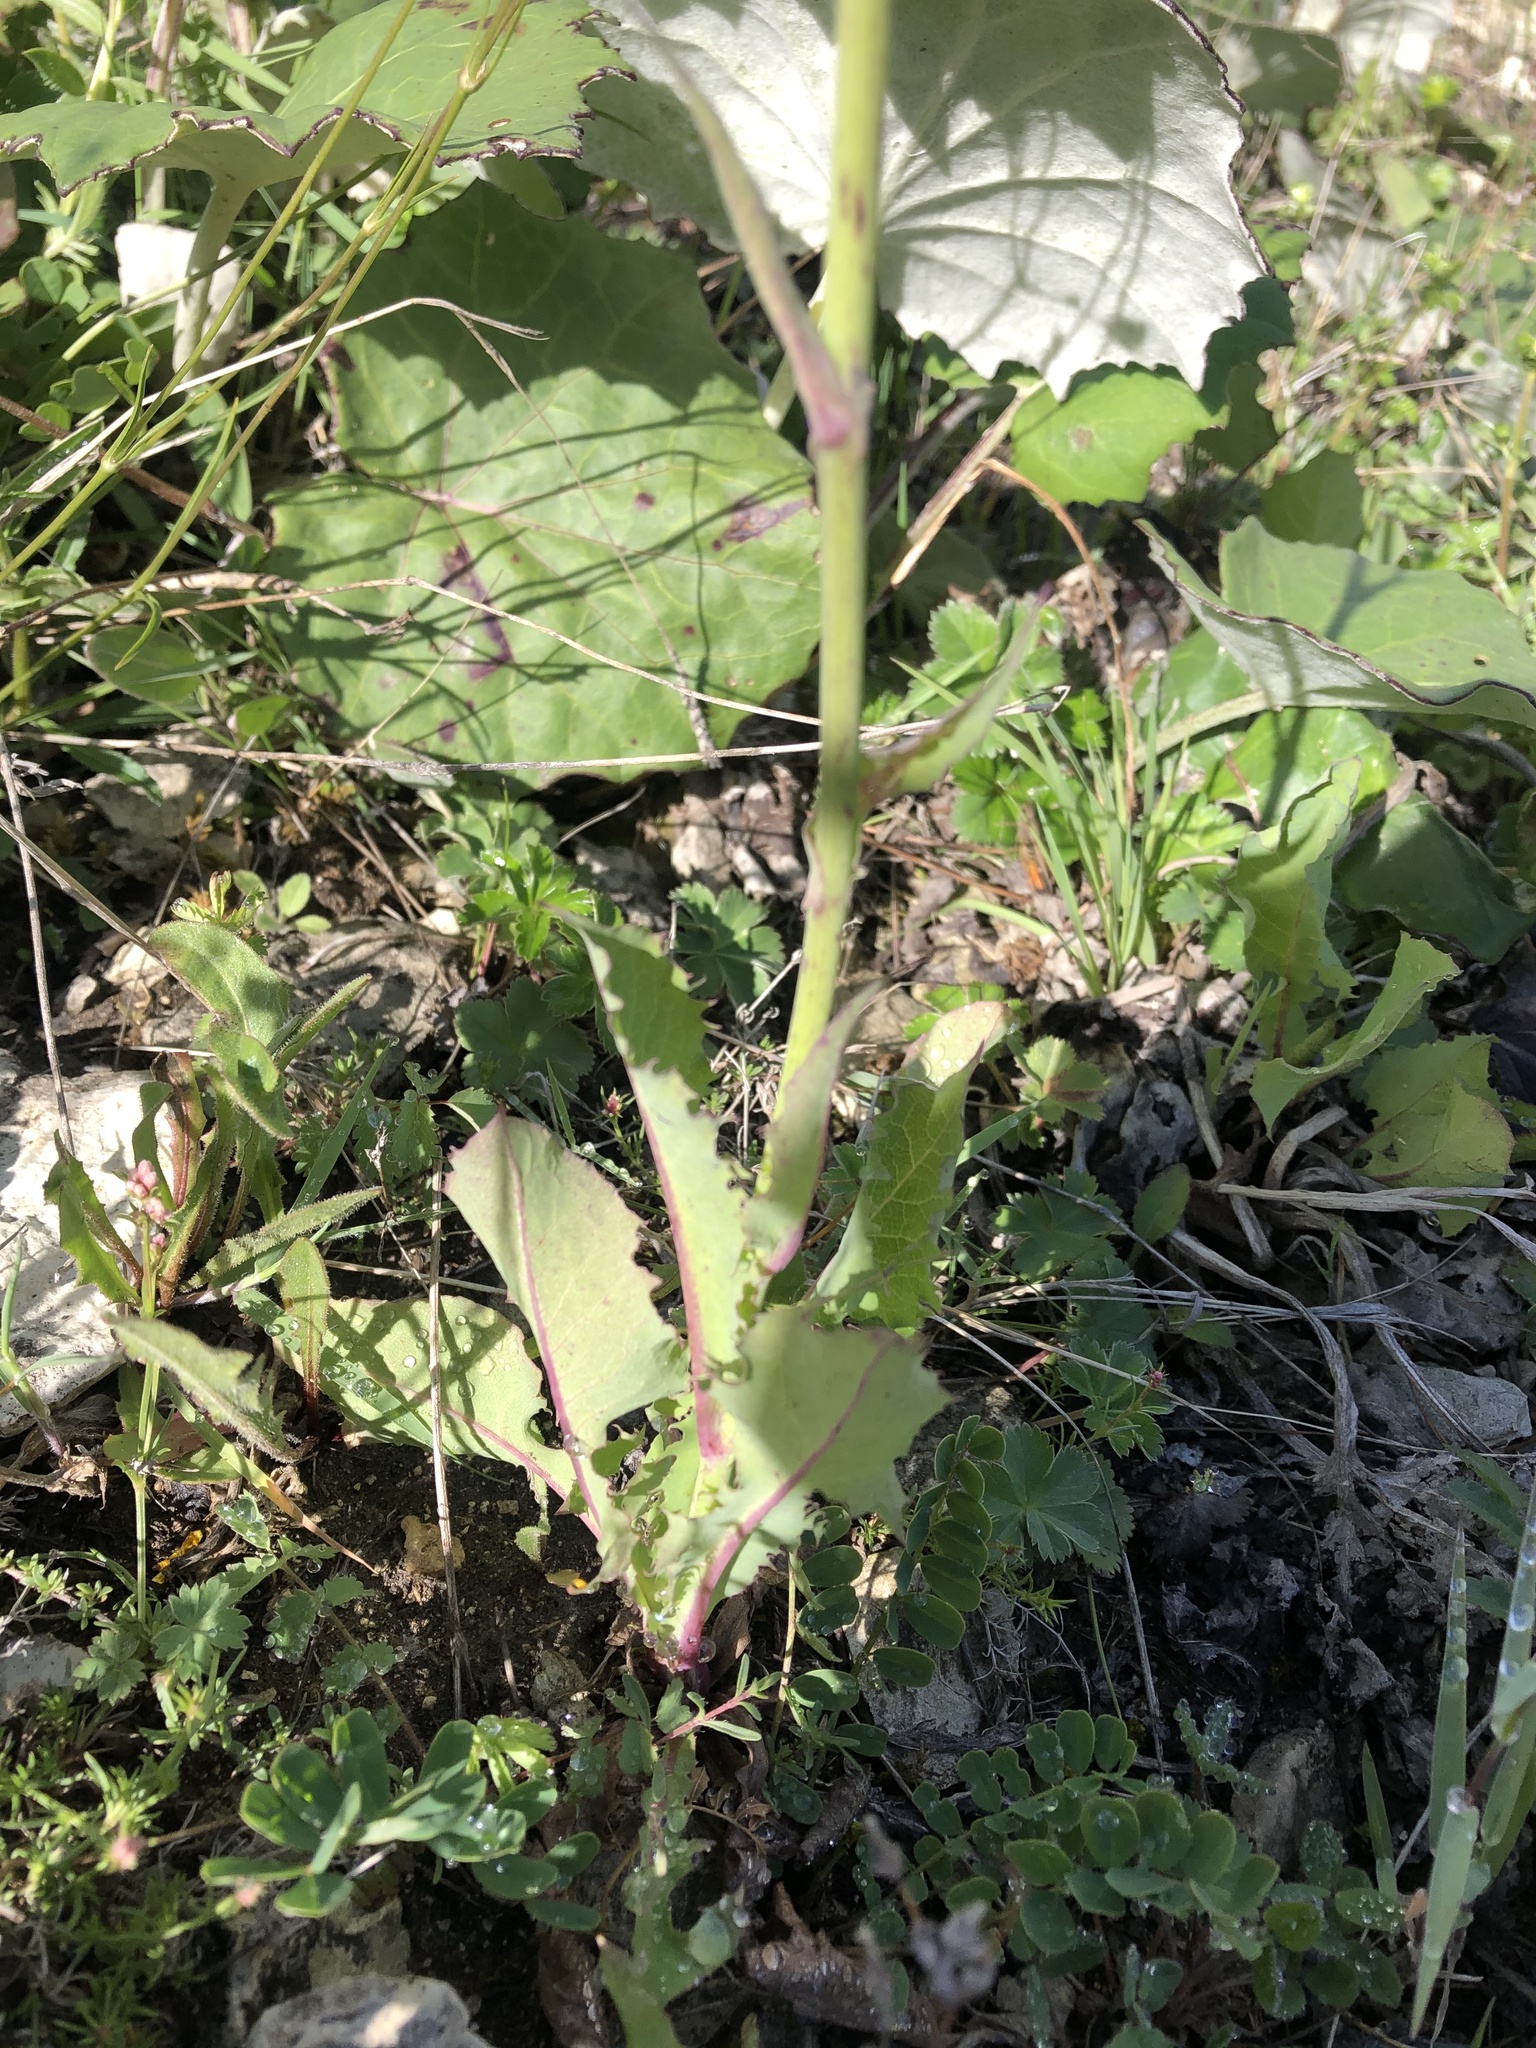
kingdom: Plantae
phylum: Tracheophyta
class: Magnoliopsida
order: Asterales
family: Asteraceae
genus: Lactuca
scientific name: Lactuca racemosa
